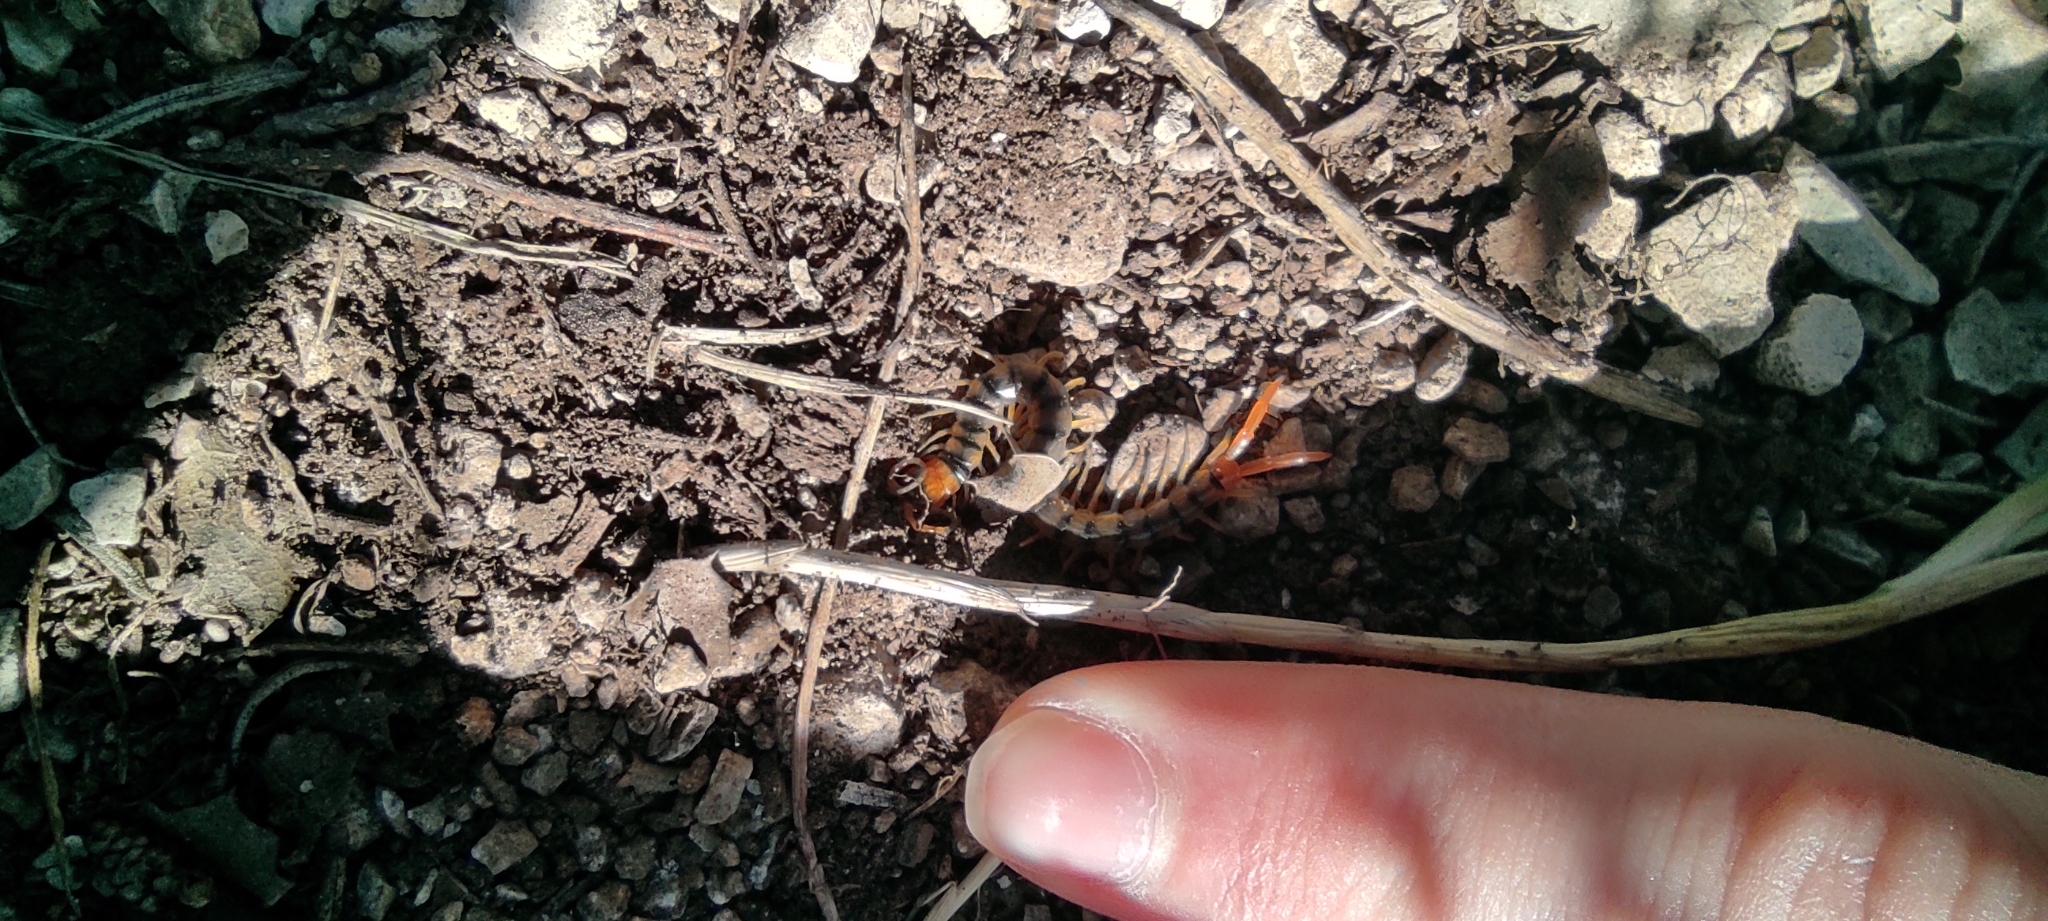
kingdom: Animalia
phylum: Arthropoda
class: Chilopoda
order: Scolopendromorpha
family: Scolopendridae
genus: Scolopendra
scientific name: Scolopendra cingulata
